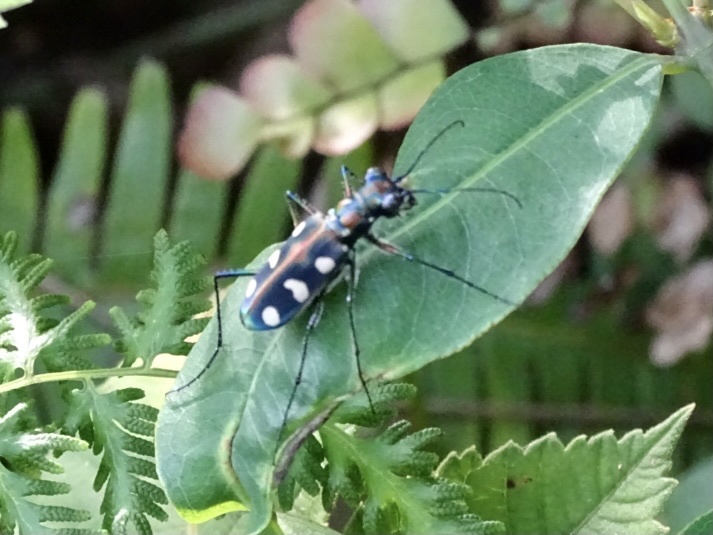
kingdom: Animalia
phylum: Arthropoda
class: Insecta
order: Coleoptera
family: Carabidae
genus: Cicindela
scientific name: Cicindela juxtata
